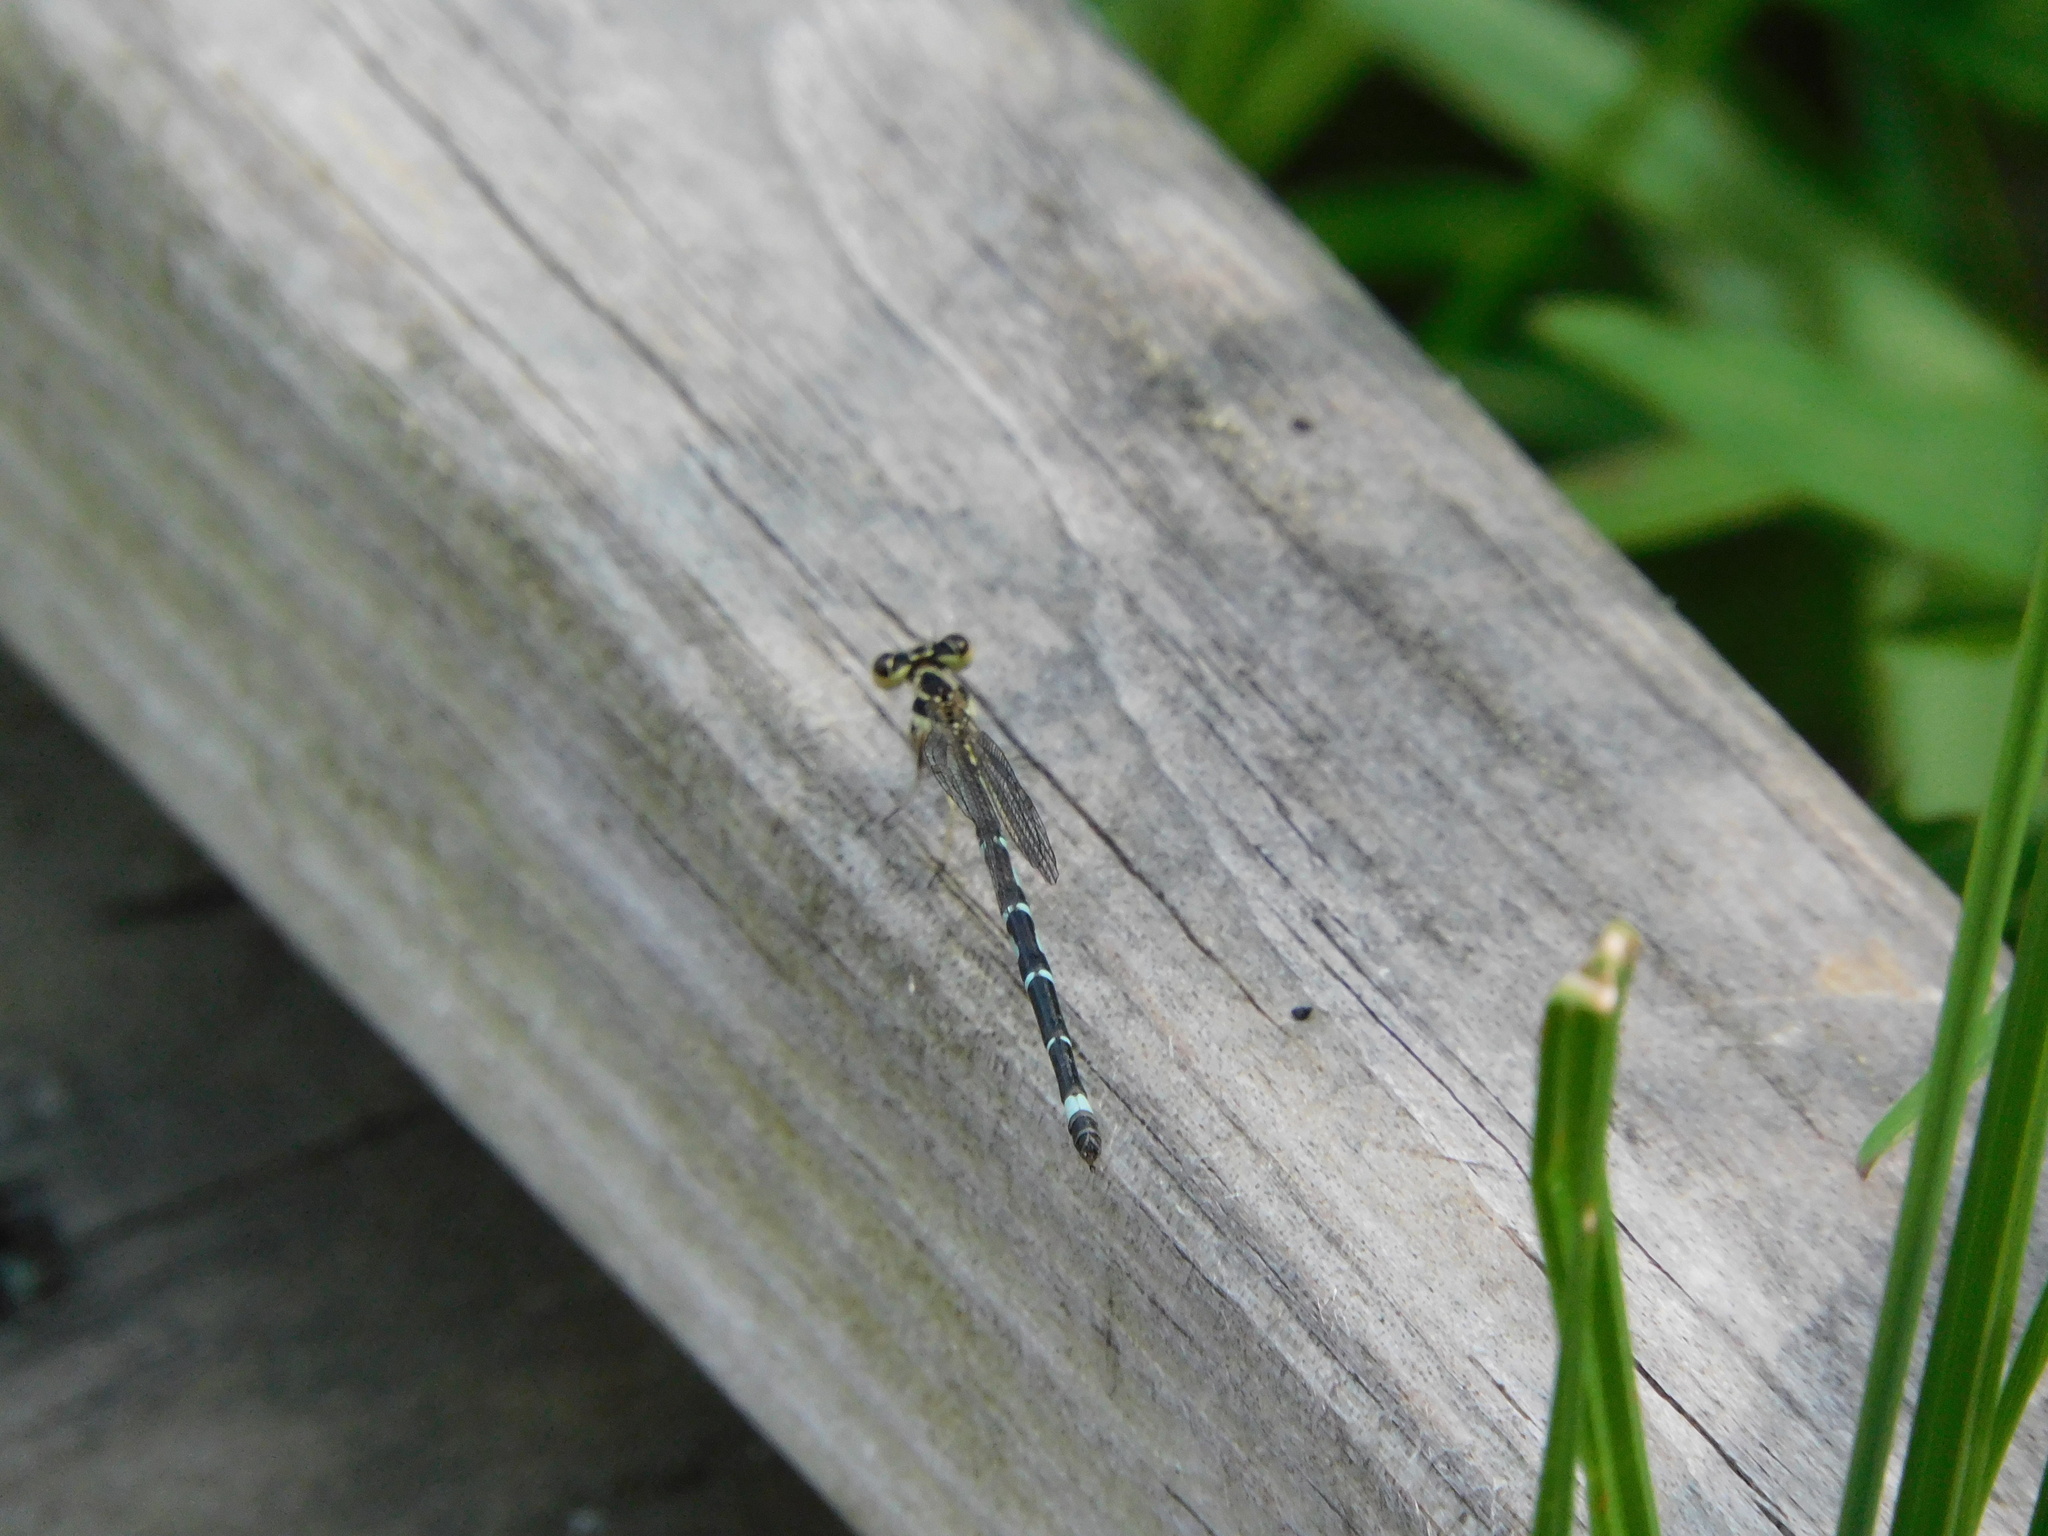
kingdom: Animalia
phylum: Arthropoda
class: Insecta
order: Odonata
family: Coenagrionidae
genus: Argia
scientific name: Argia bipunctulata
